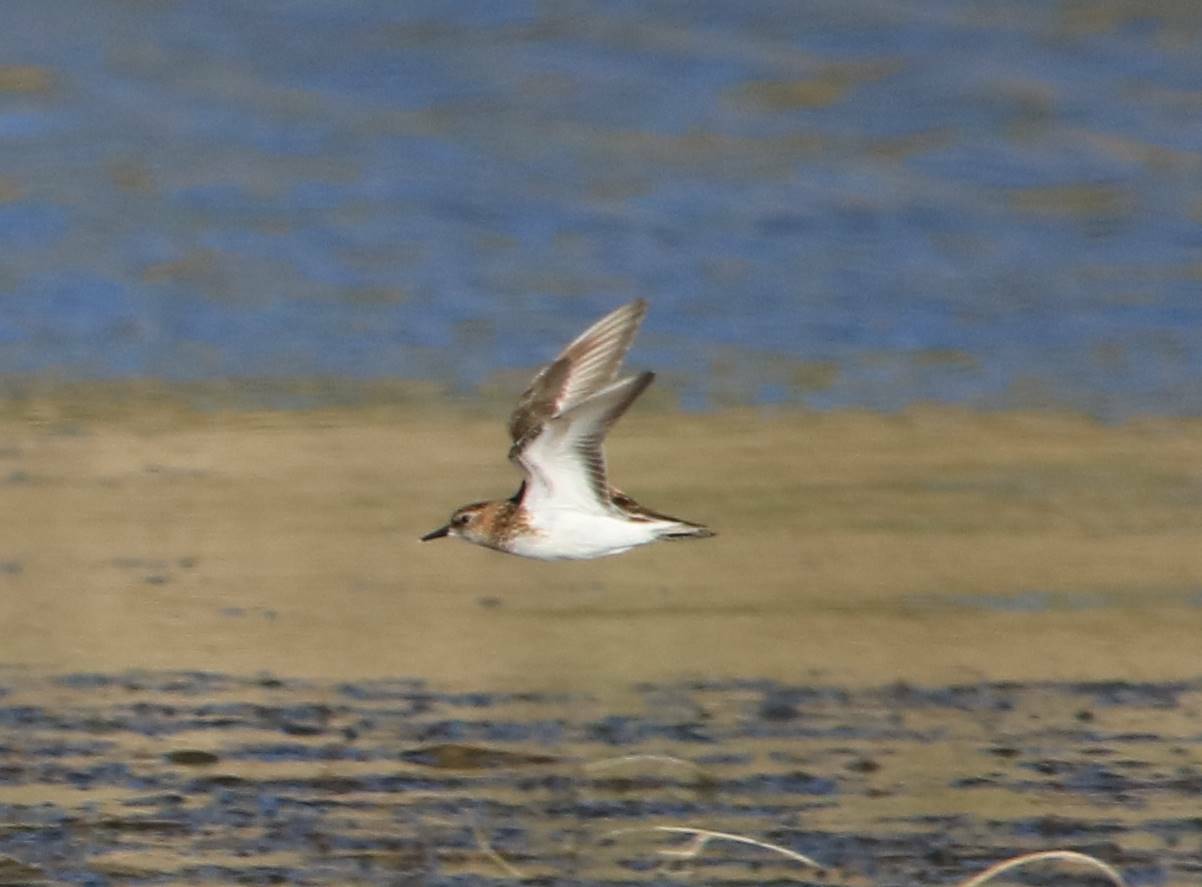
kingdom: Animalia
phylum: Chordata
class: Aves
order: Charadriiformes
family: Scolopacidae
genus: Calidris
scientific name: Calidris minuta
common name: Little stint
